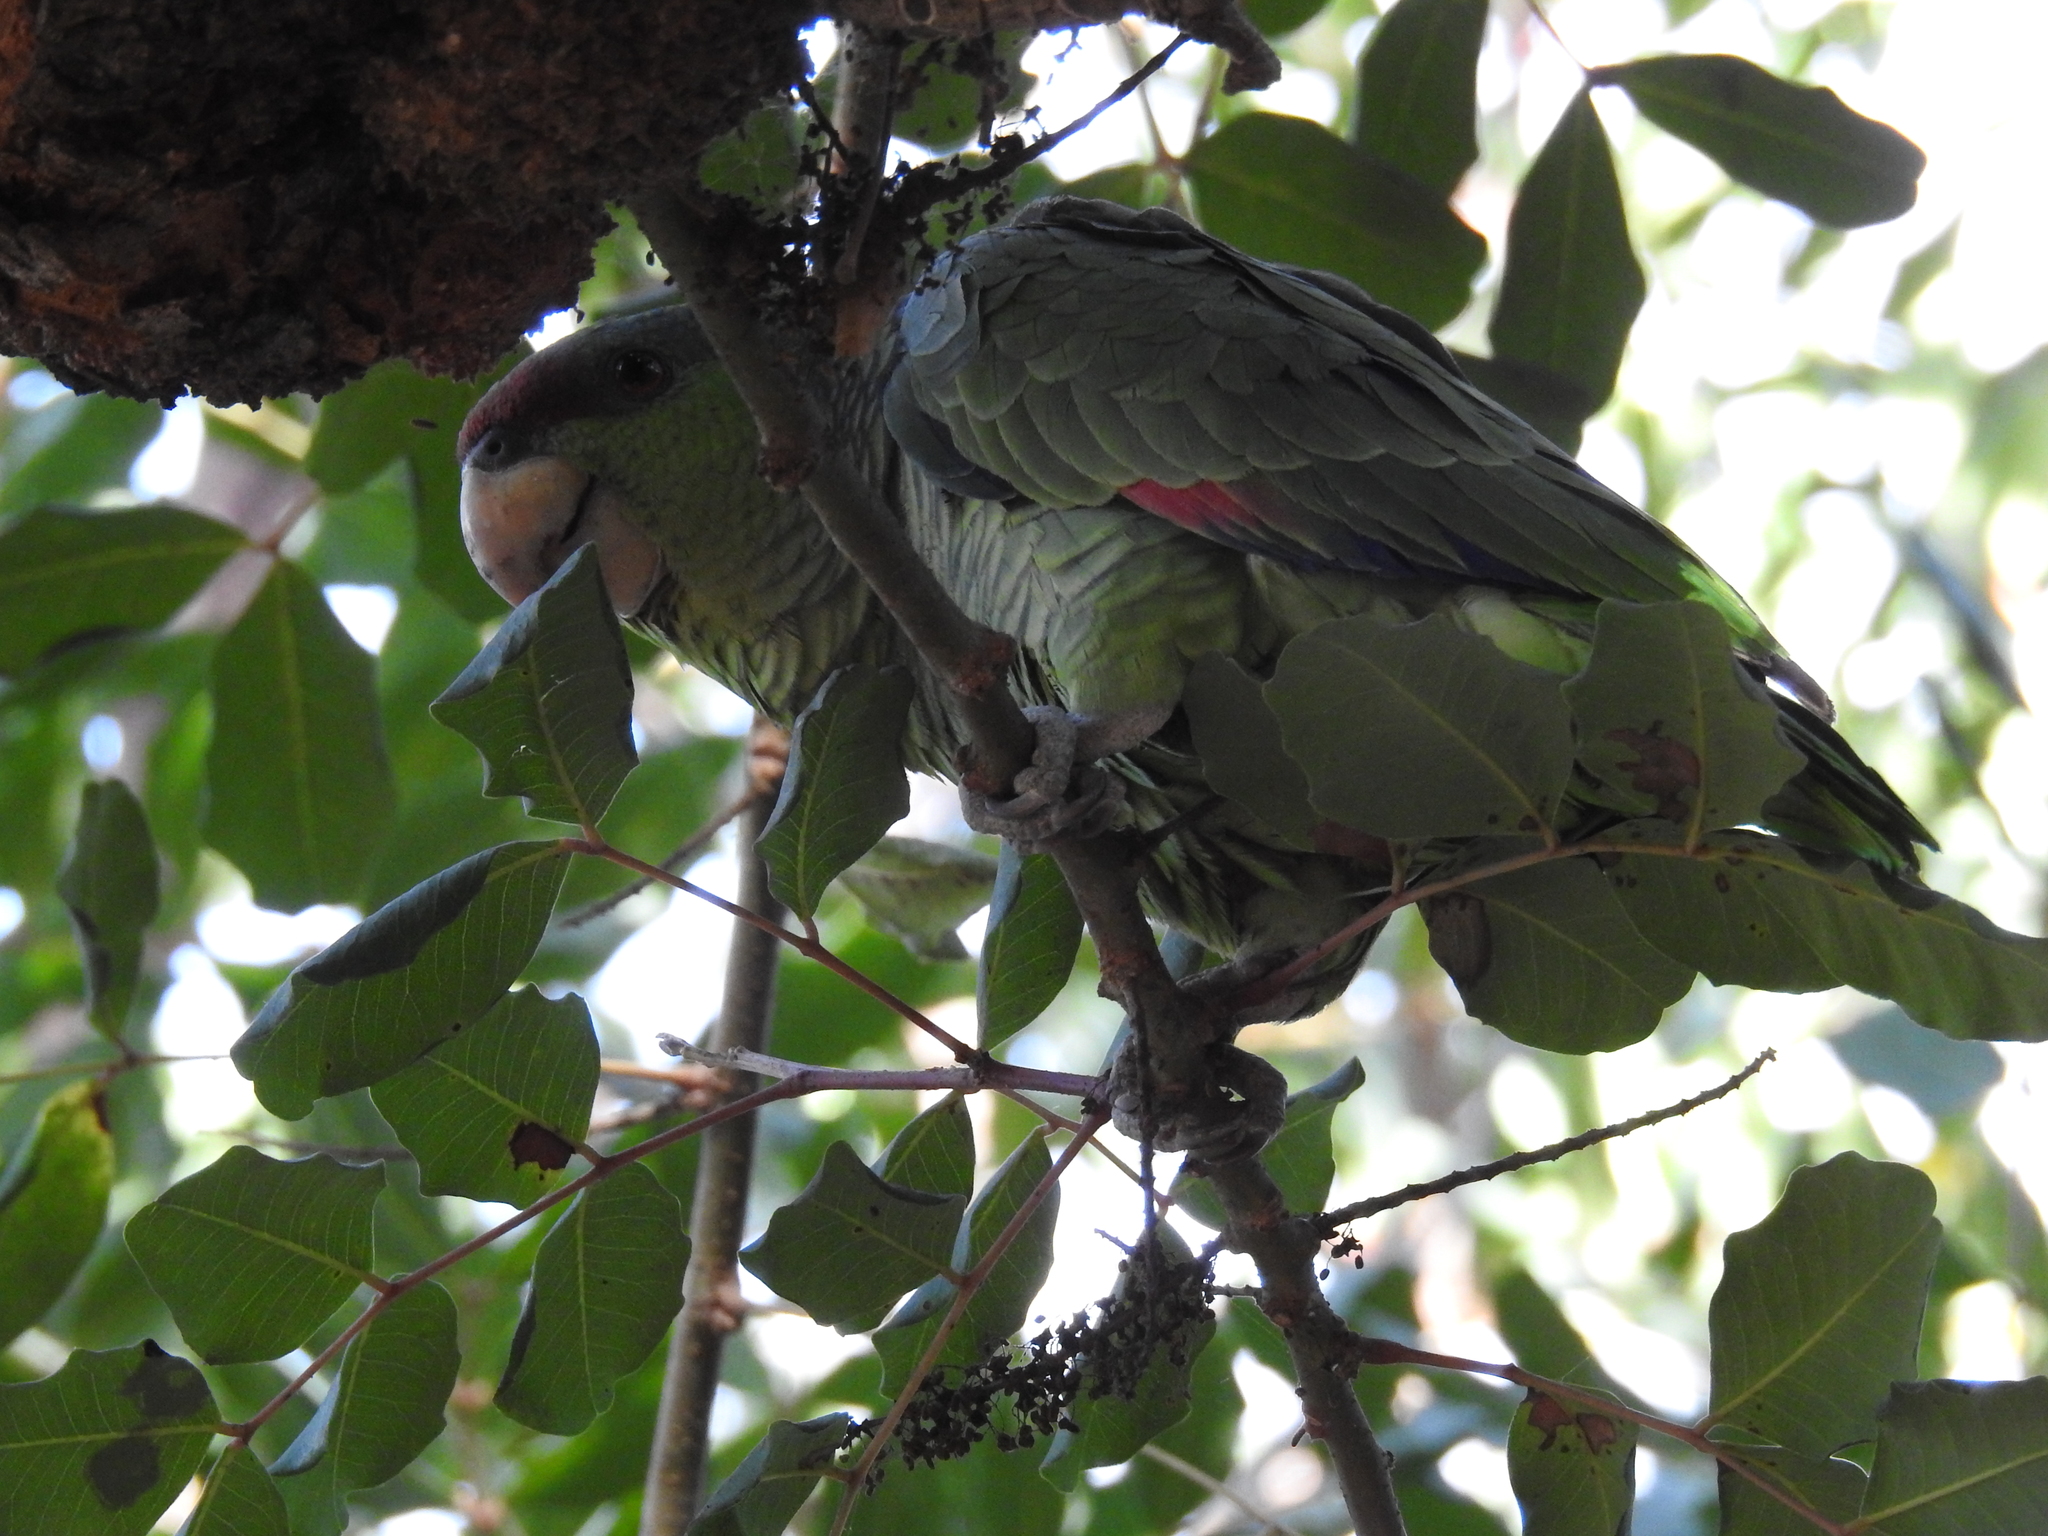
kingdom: Animalia
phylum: Chordata
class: Aves
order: Psittaciformes
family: Psittacidae
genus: Amazona
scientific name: Amazona finschi
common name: Lilac-crowned amazon
